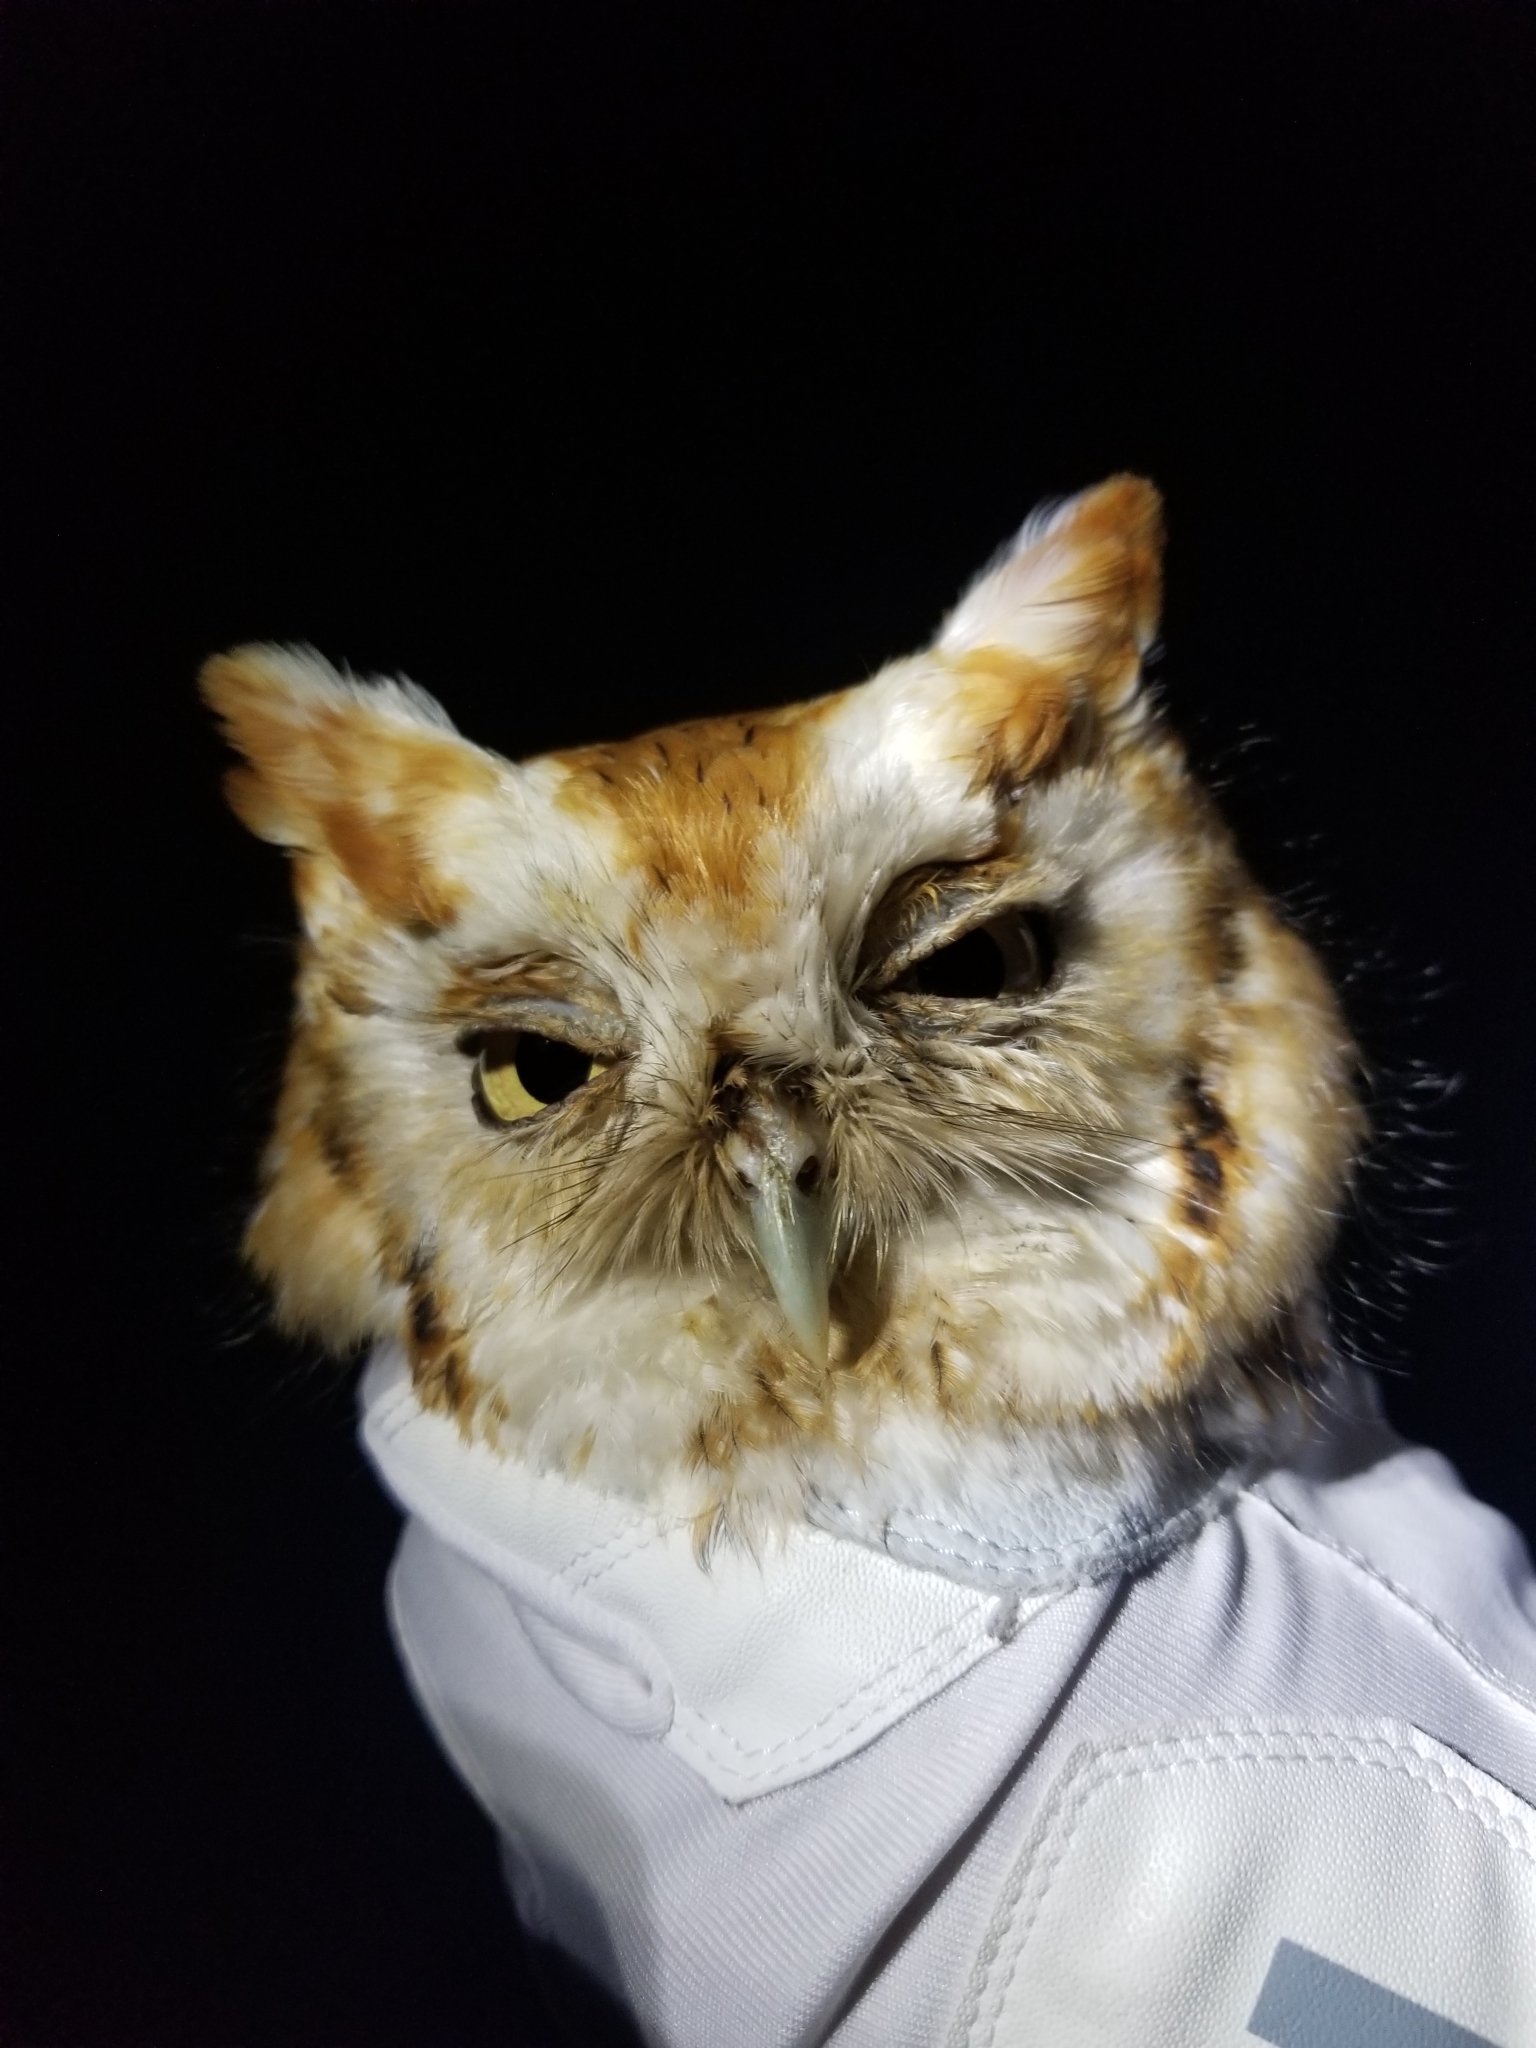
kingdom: Animalia
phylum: Chordata
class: Aves
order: Strigiformes
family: Strigidae
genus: Megascops
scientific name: Megascops asio
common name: Eastern screech-owl
